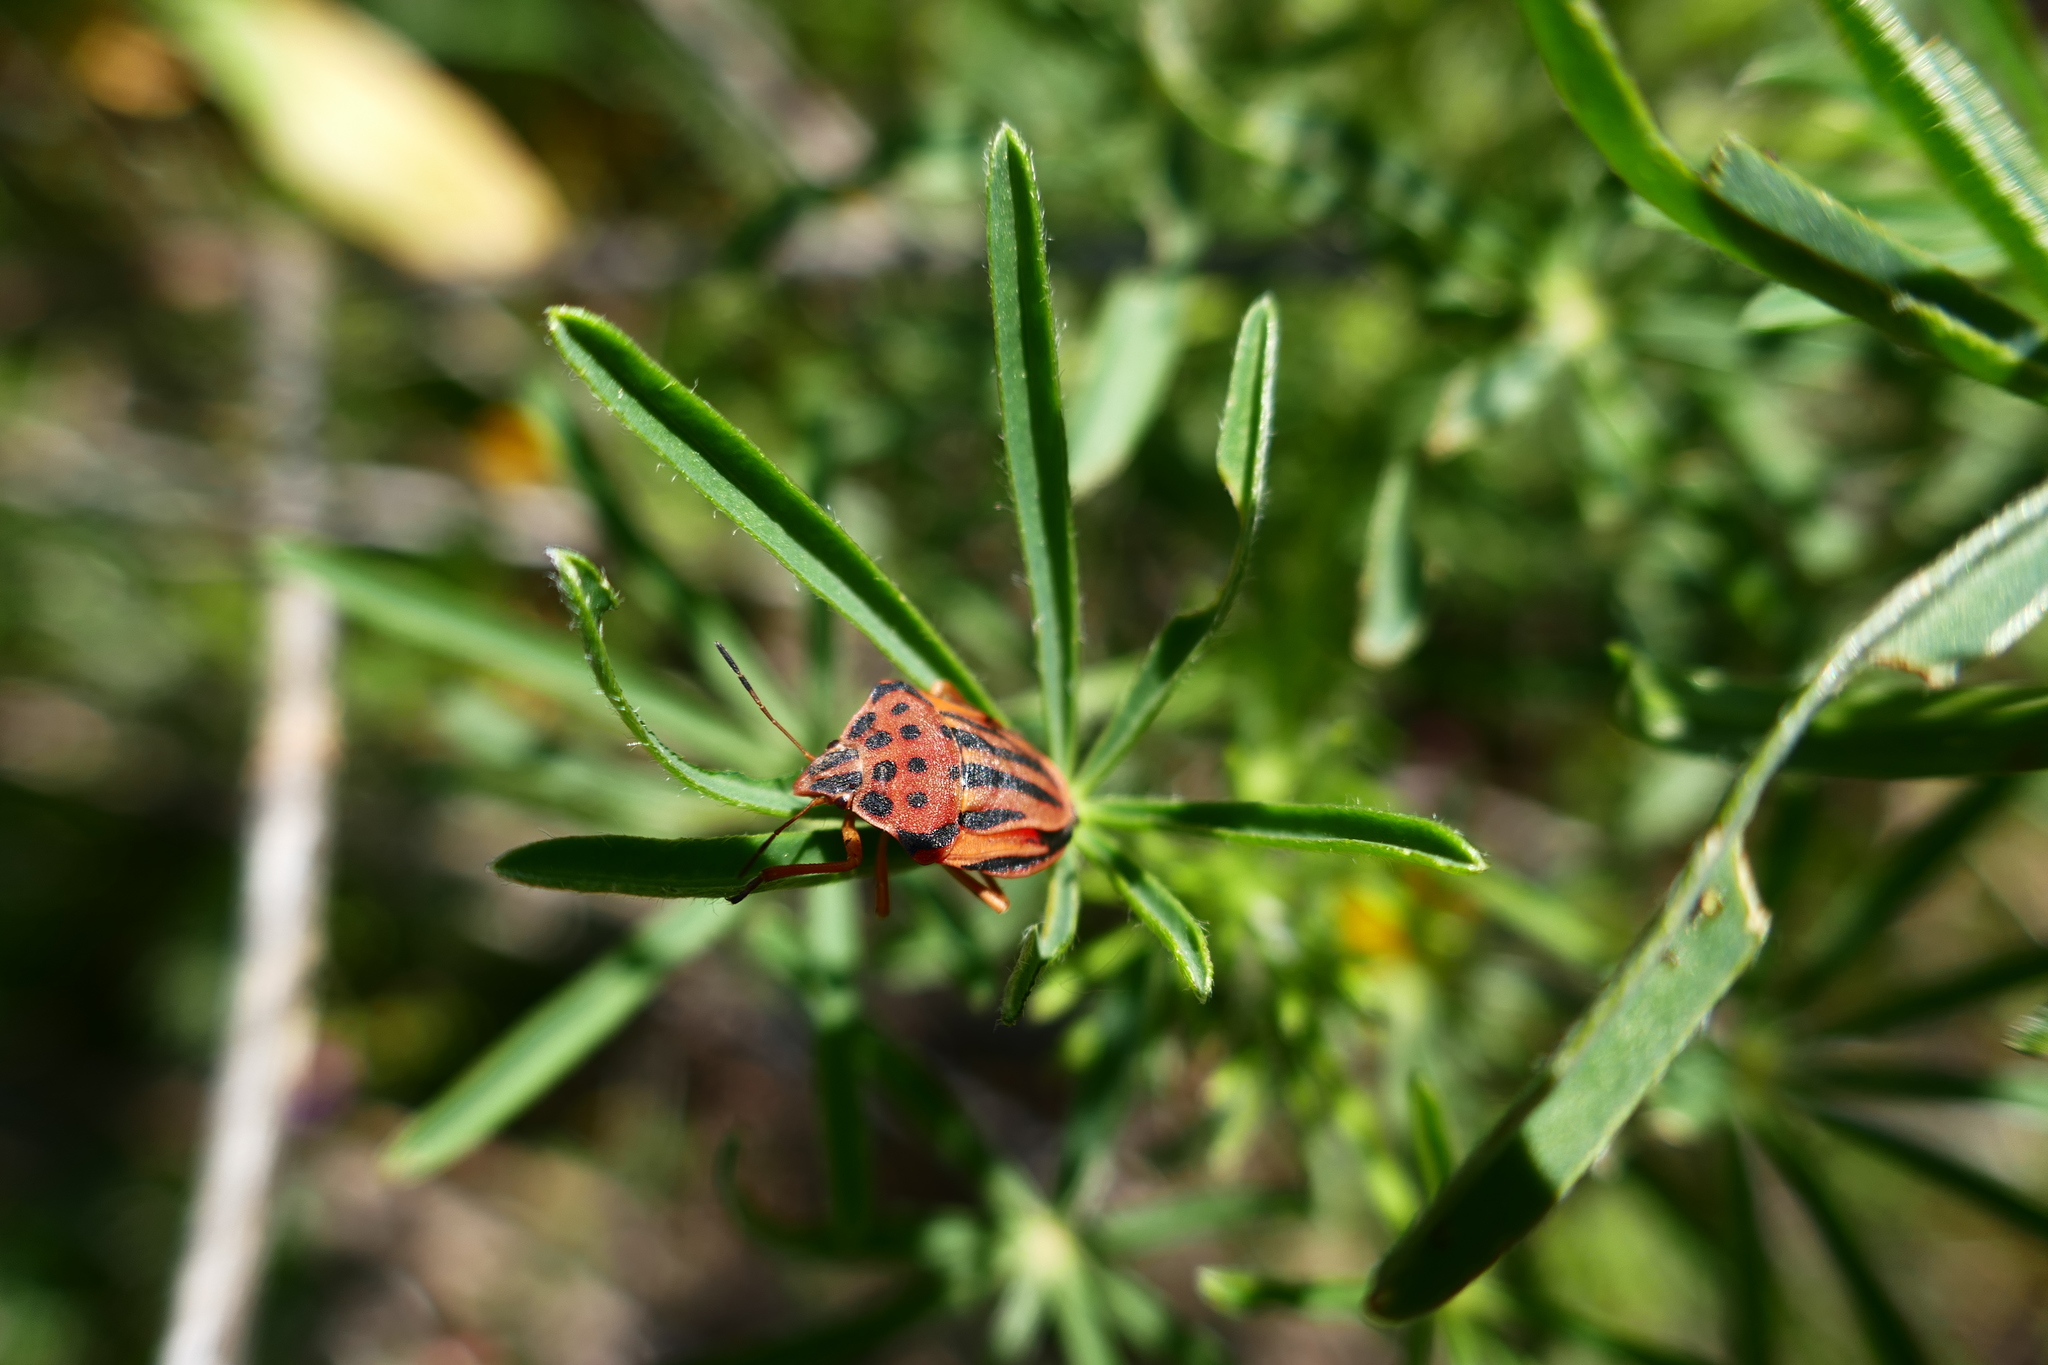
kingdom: Animalia
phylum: Arthropoda
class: Insecta
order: Hemiptera
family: Pentatomidae
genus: Graphosoma
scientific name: Graphosoma semipunctatum
